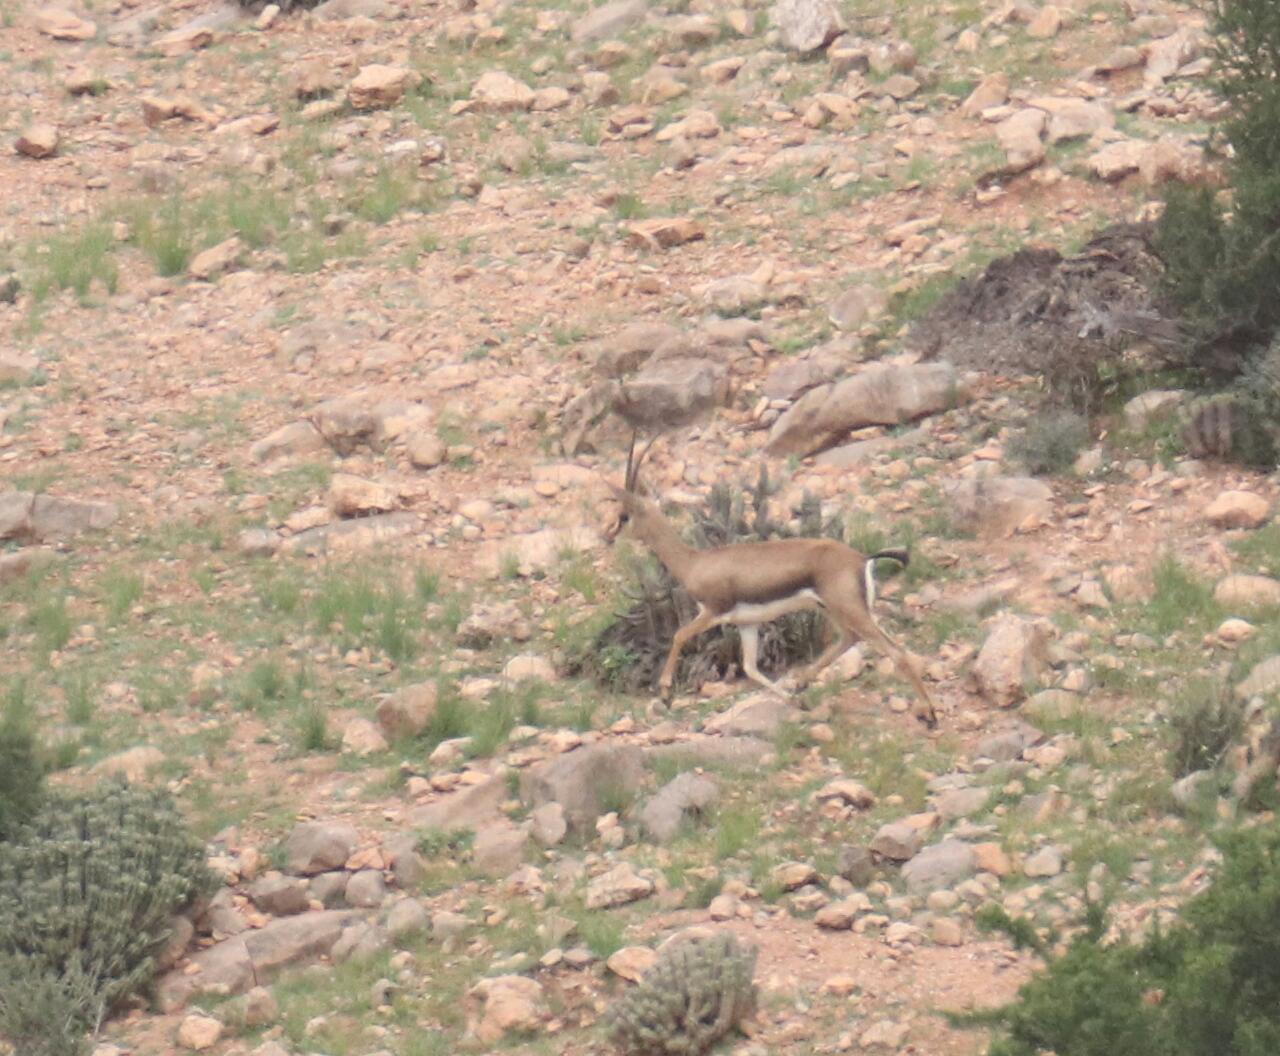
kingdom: Animalia
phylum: Chordata
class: Mammalia
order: Artiodactyla
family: Bovidae
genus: Gazella
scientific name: Gazella cuvieri
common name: Cuvier's gazelle
